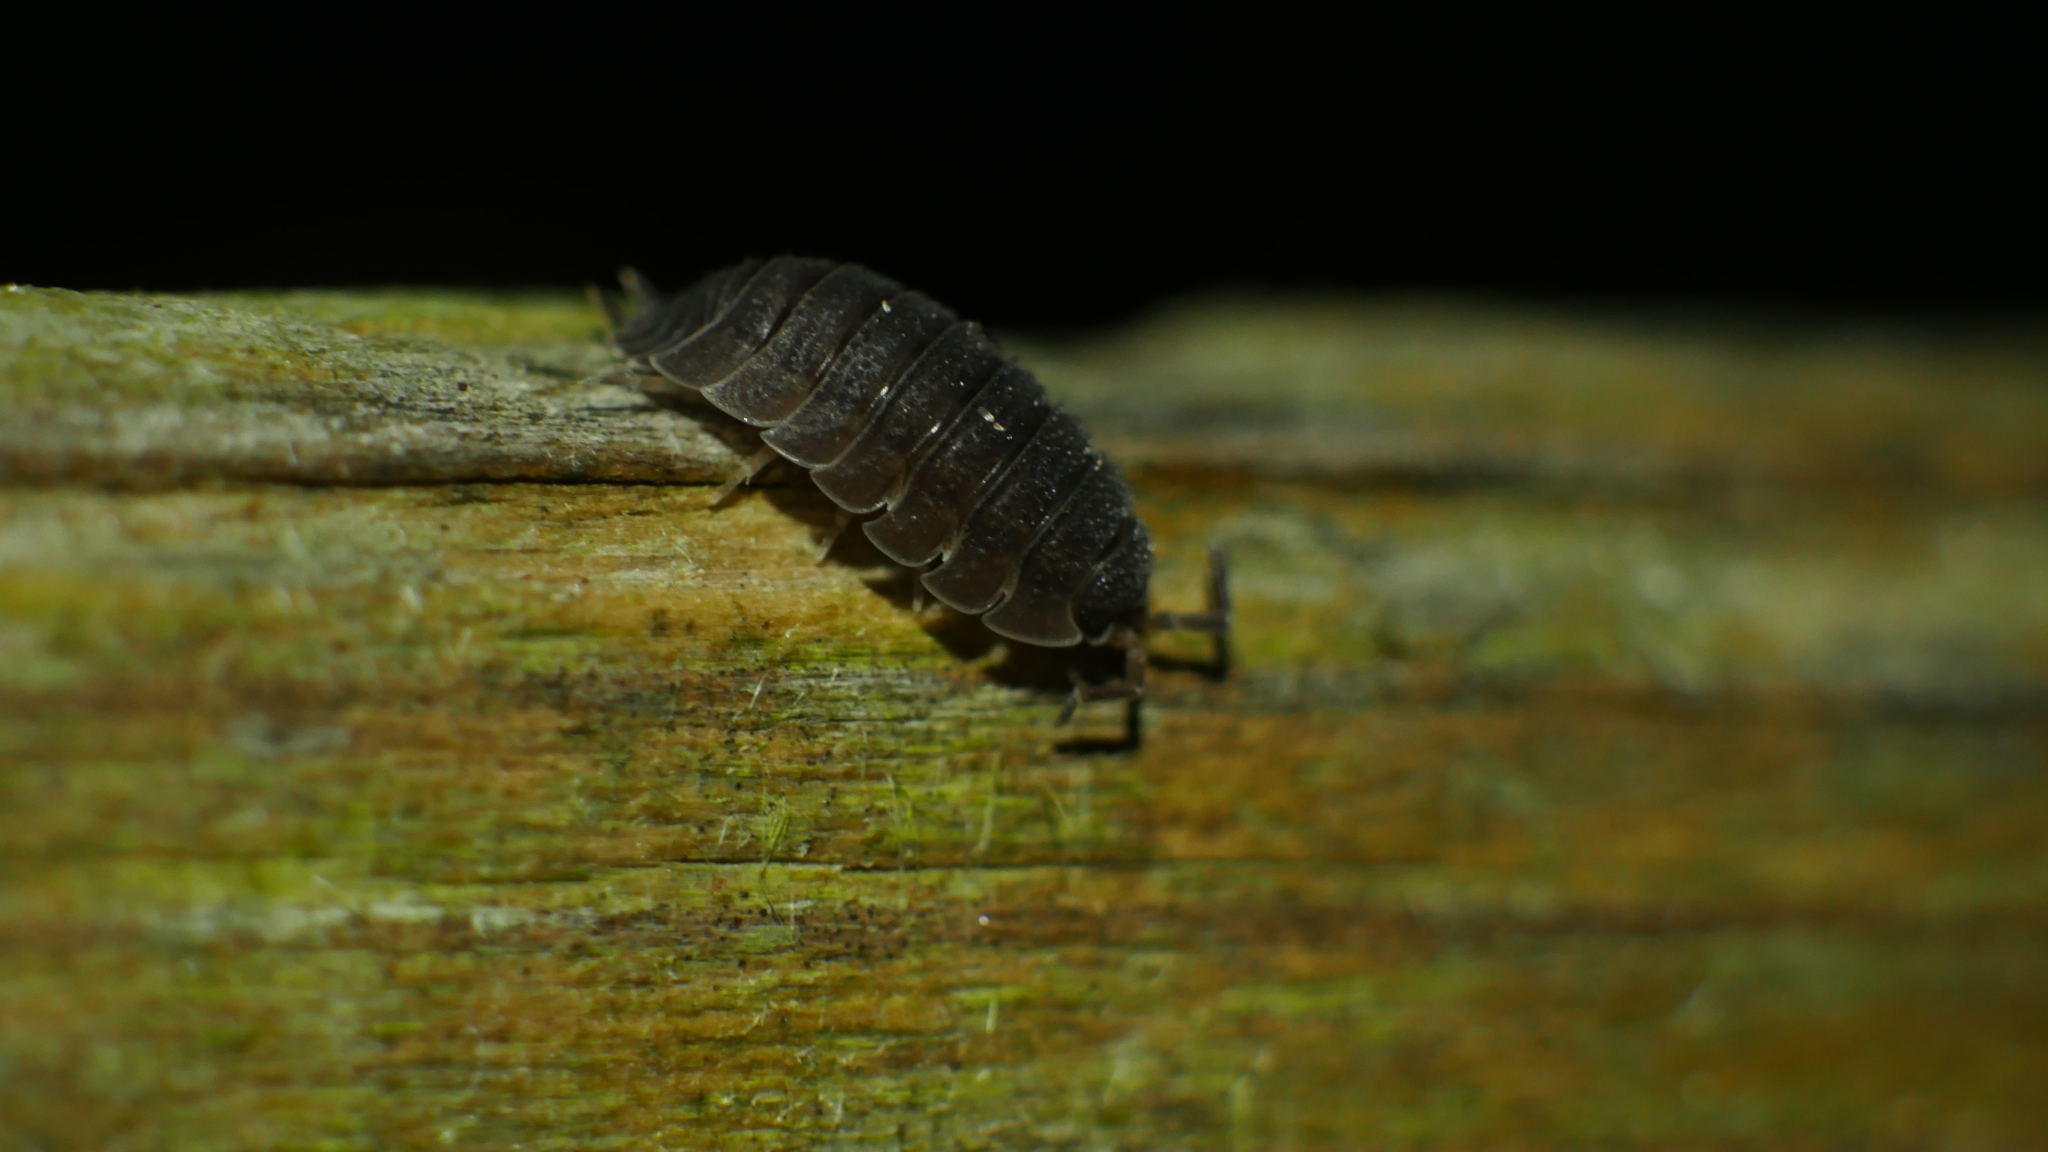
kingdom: Animalia
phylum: Arthropoda
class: Malacostraca
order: Isopoda
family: Porcellionidae
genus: Porcellio
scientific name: Porcellio scaber
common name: Common rough woodlouse
